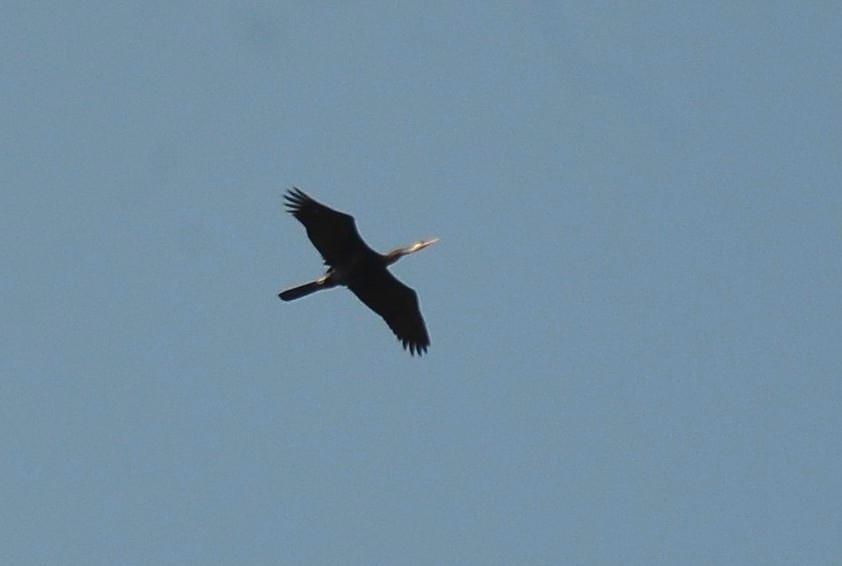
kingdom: Animalia
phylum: Chordata
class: Aves
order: Suliformes
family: Anhingidae
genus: Anhinga
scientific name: Anhinga melanogaster
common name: Oriental darter
